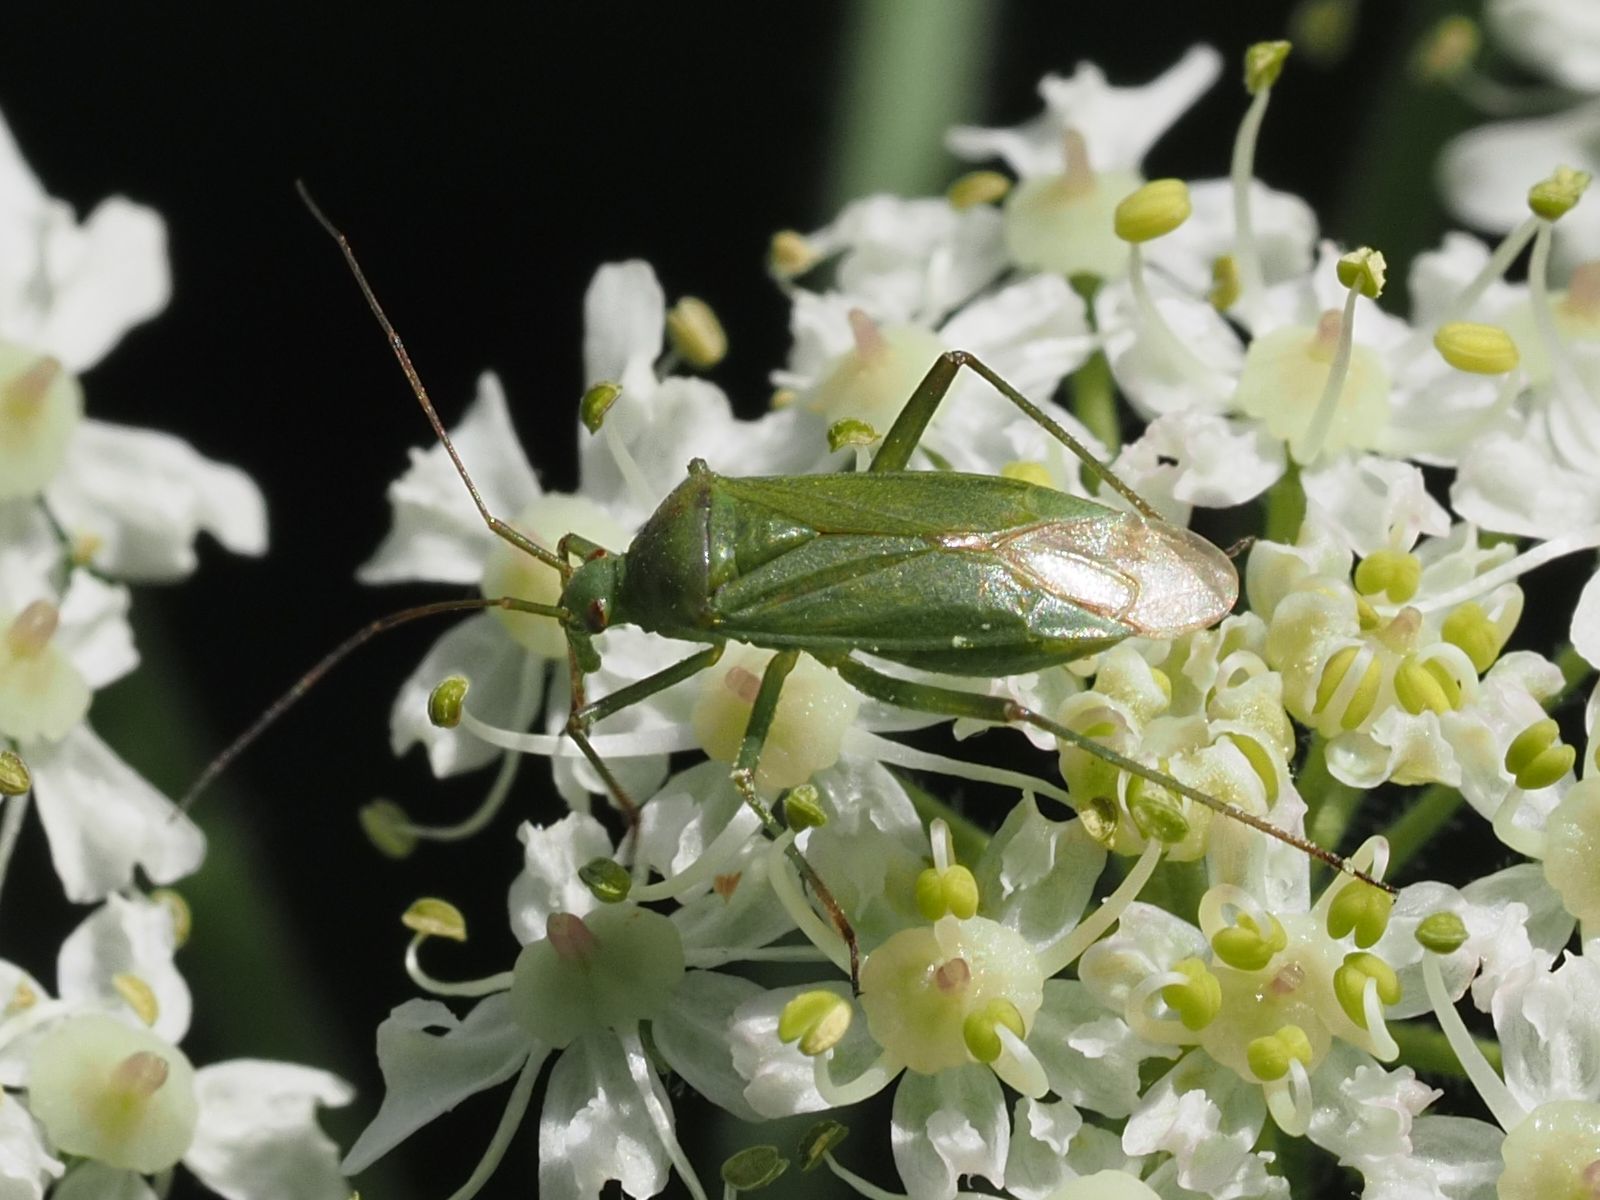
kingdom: Animalia
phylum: Arthropoda
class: Insecta
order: Hemiptera
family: Miridae
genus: Calocoris
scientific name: Calocoris affinis
